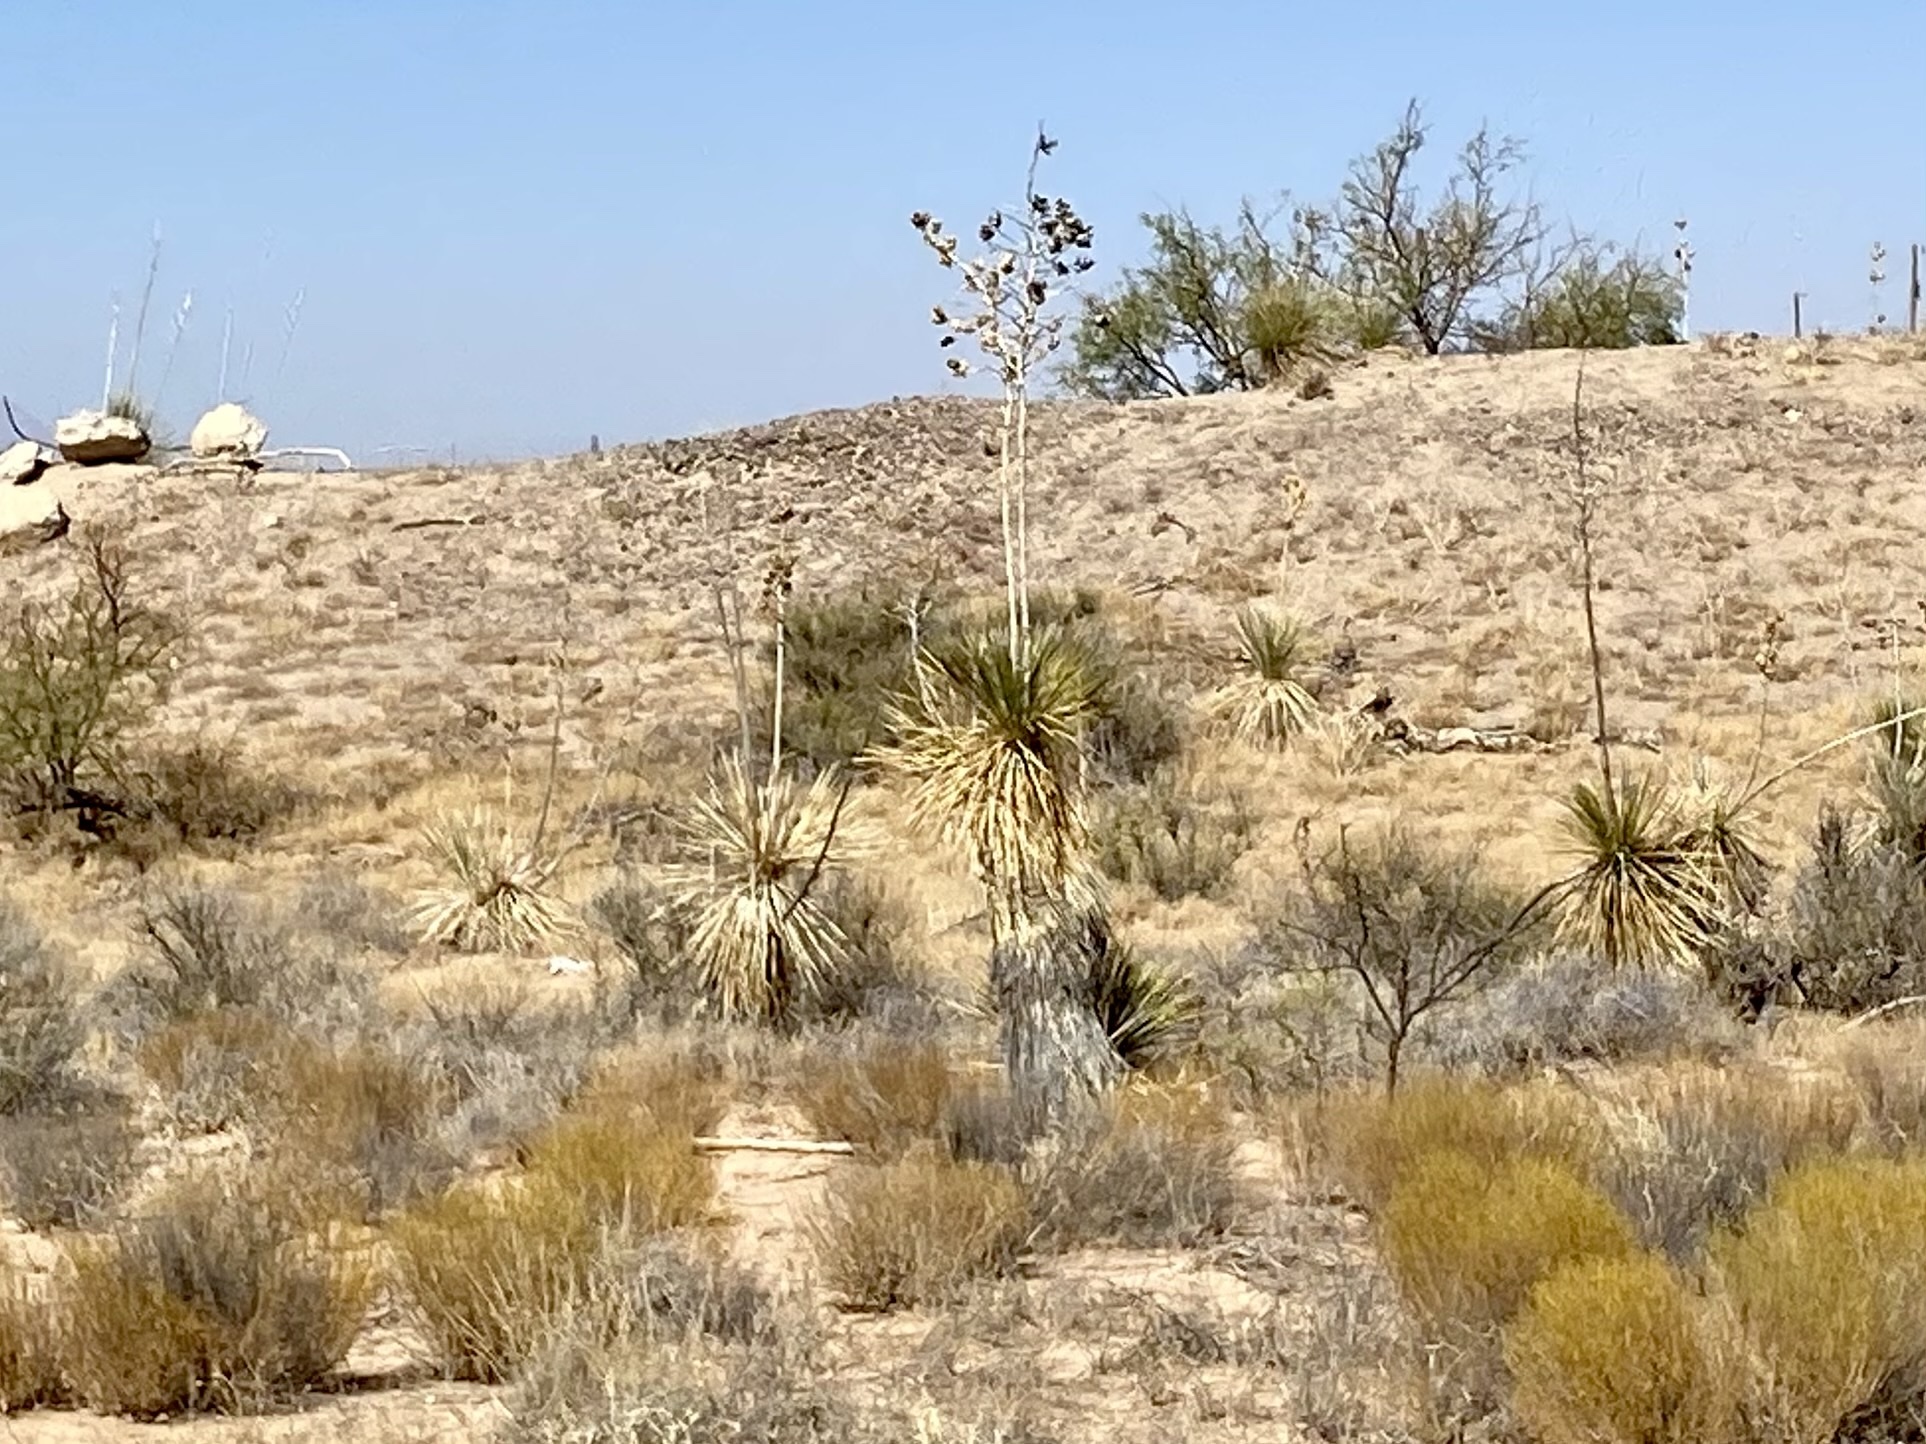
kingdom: Plantae
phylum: Tracheophyta
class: Liliopsida
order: Asparagales
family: Asparagaceae
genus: Yucca
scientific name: Yucca elata
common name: Palmella
